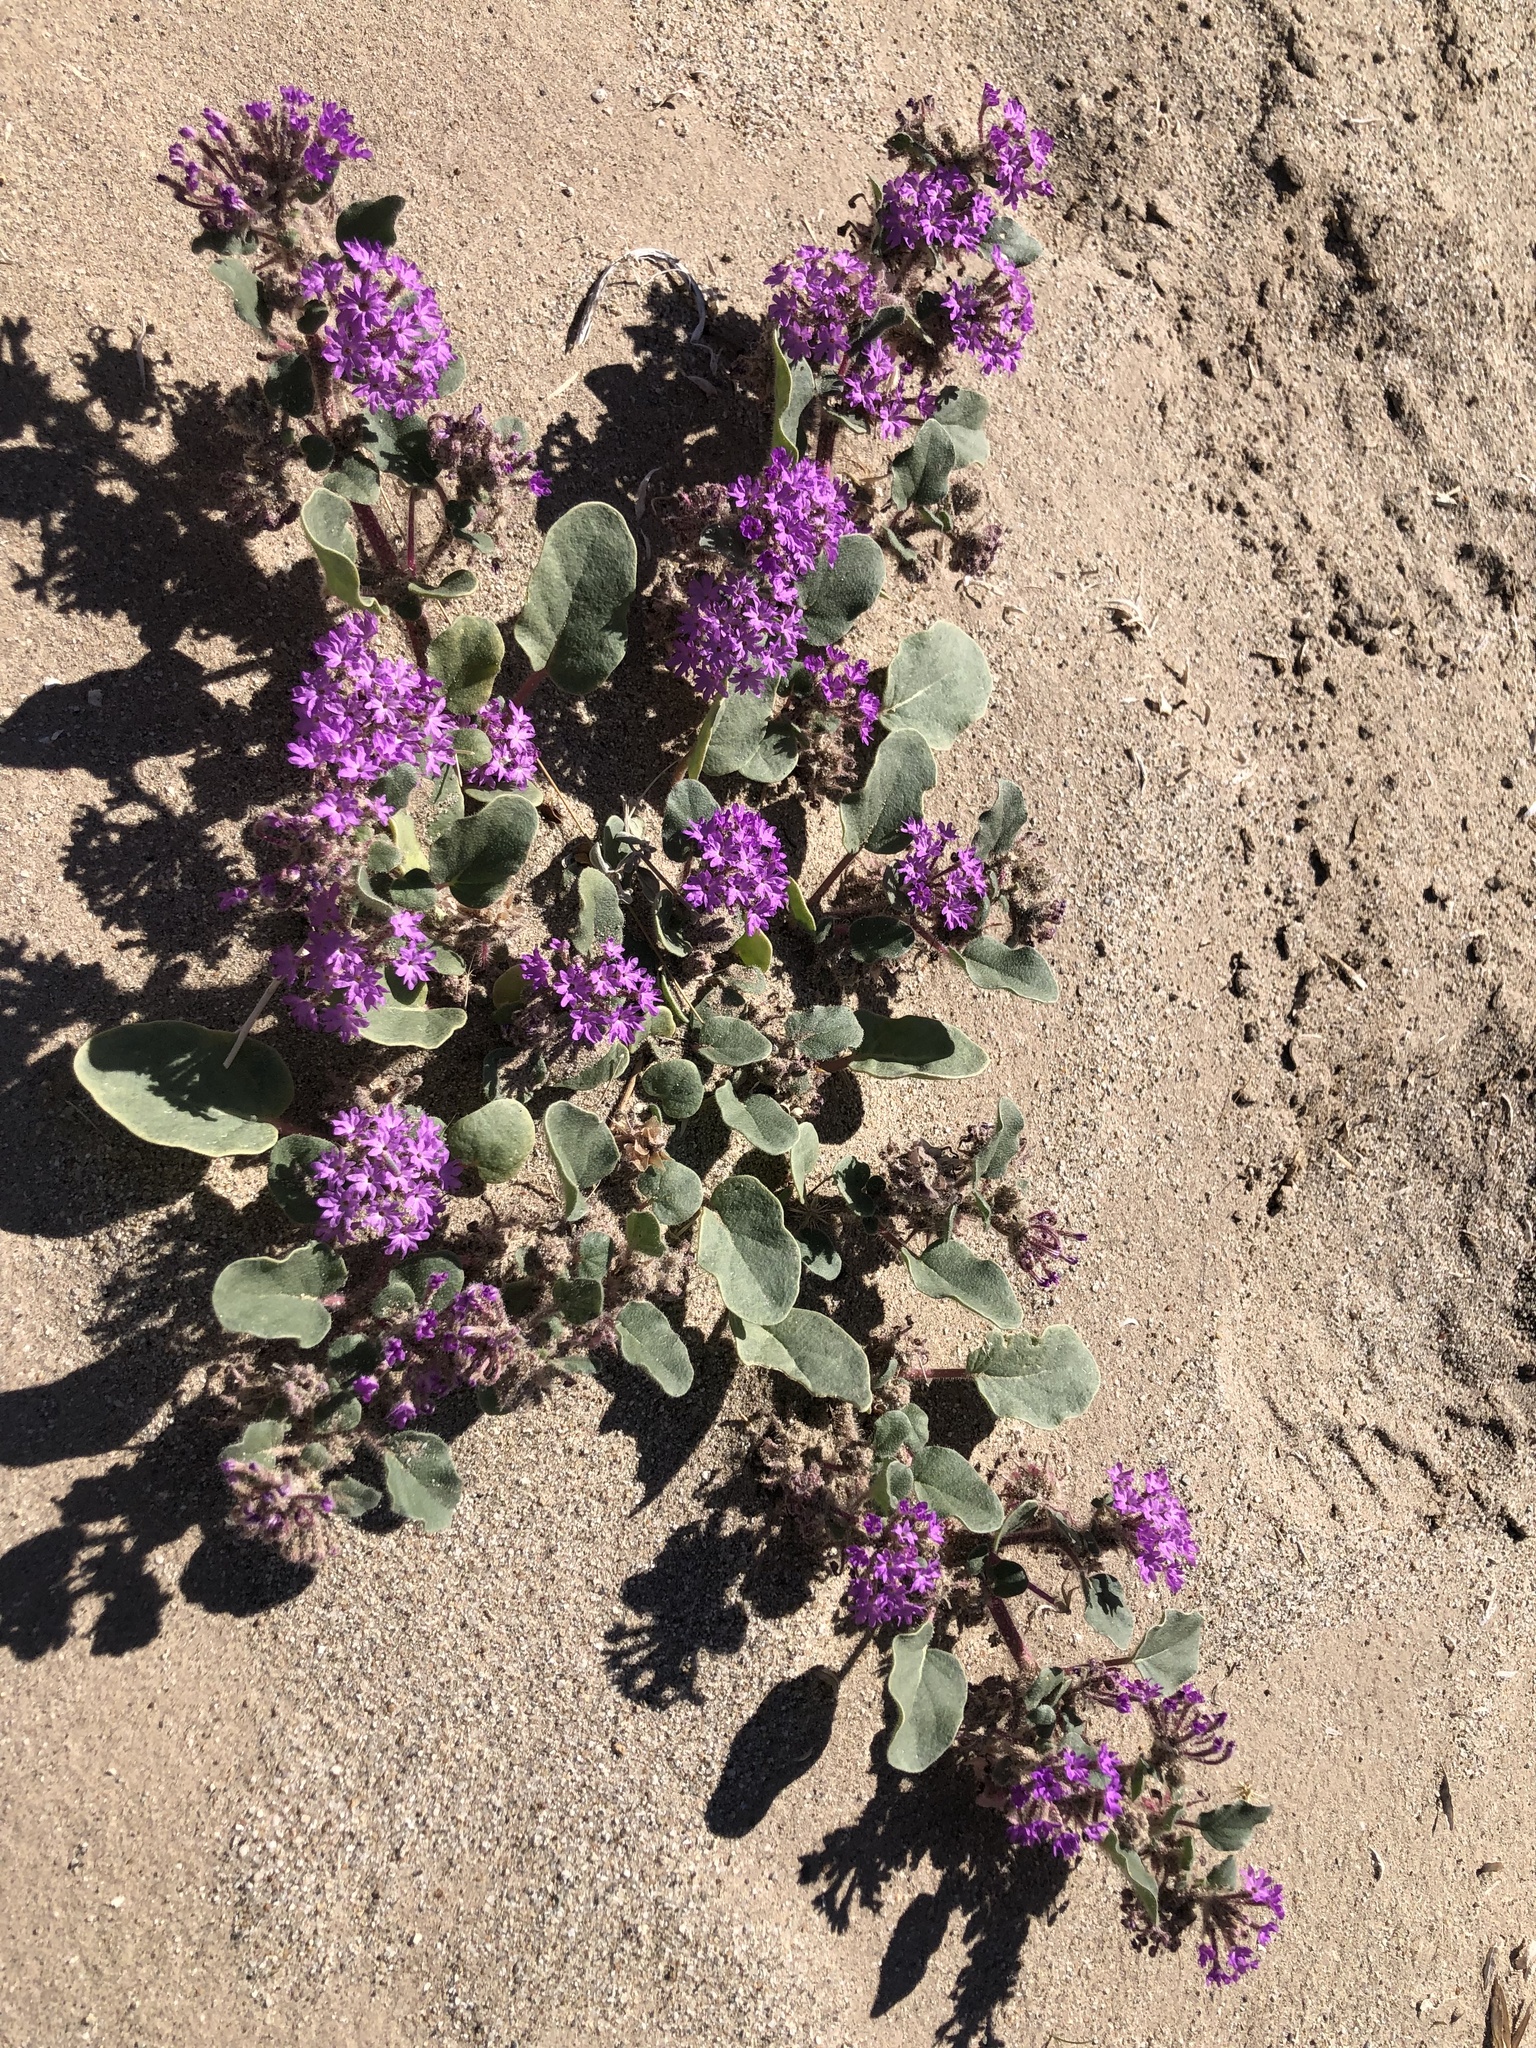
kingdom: Plantae
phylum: Tracheophyta
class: Magnoliopsida
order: Caryophyllales
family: Nyctaginaceae
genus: Abronia
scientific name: Abronia villosa
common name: Desert sand-verbena
